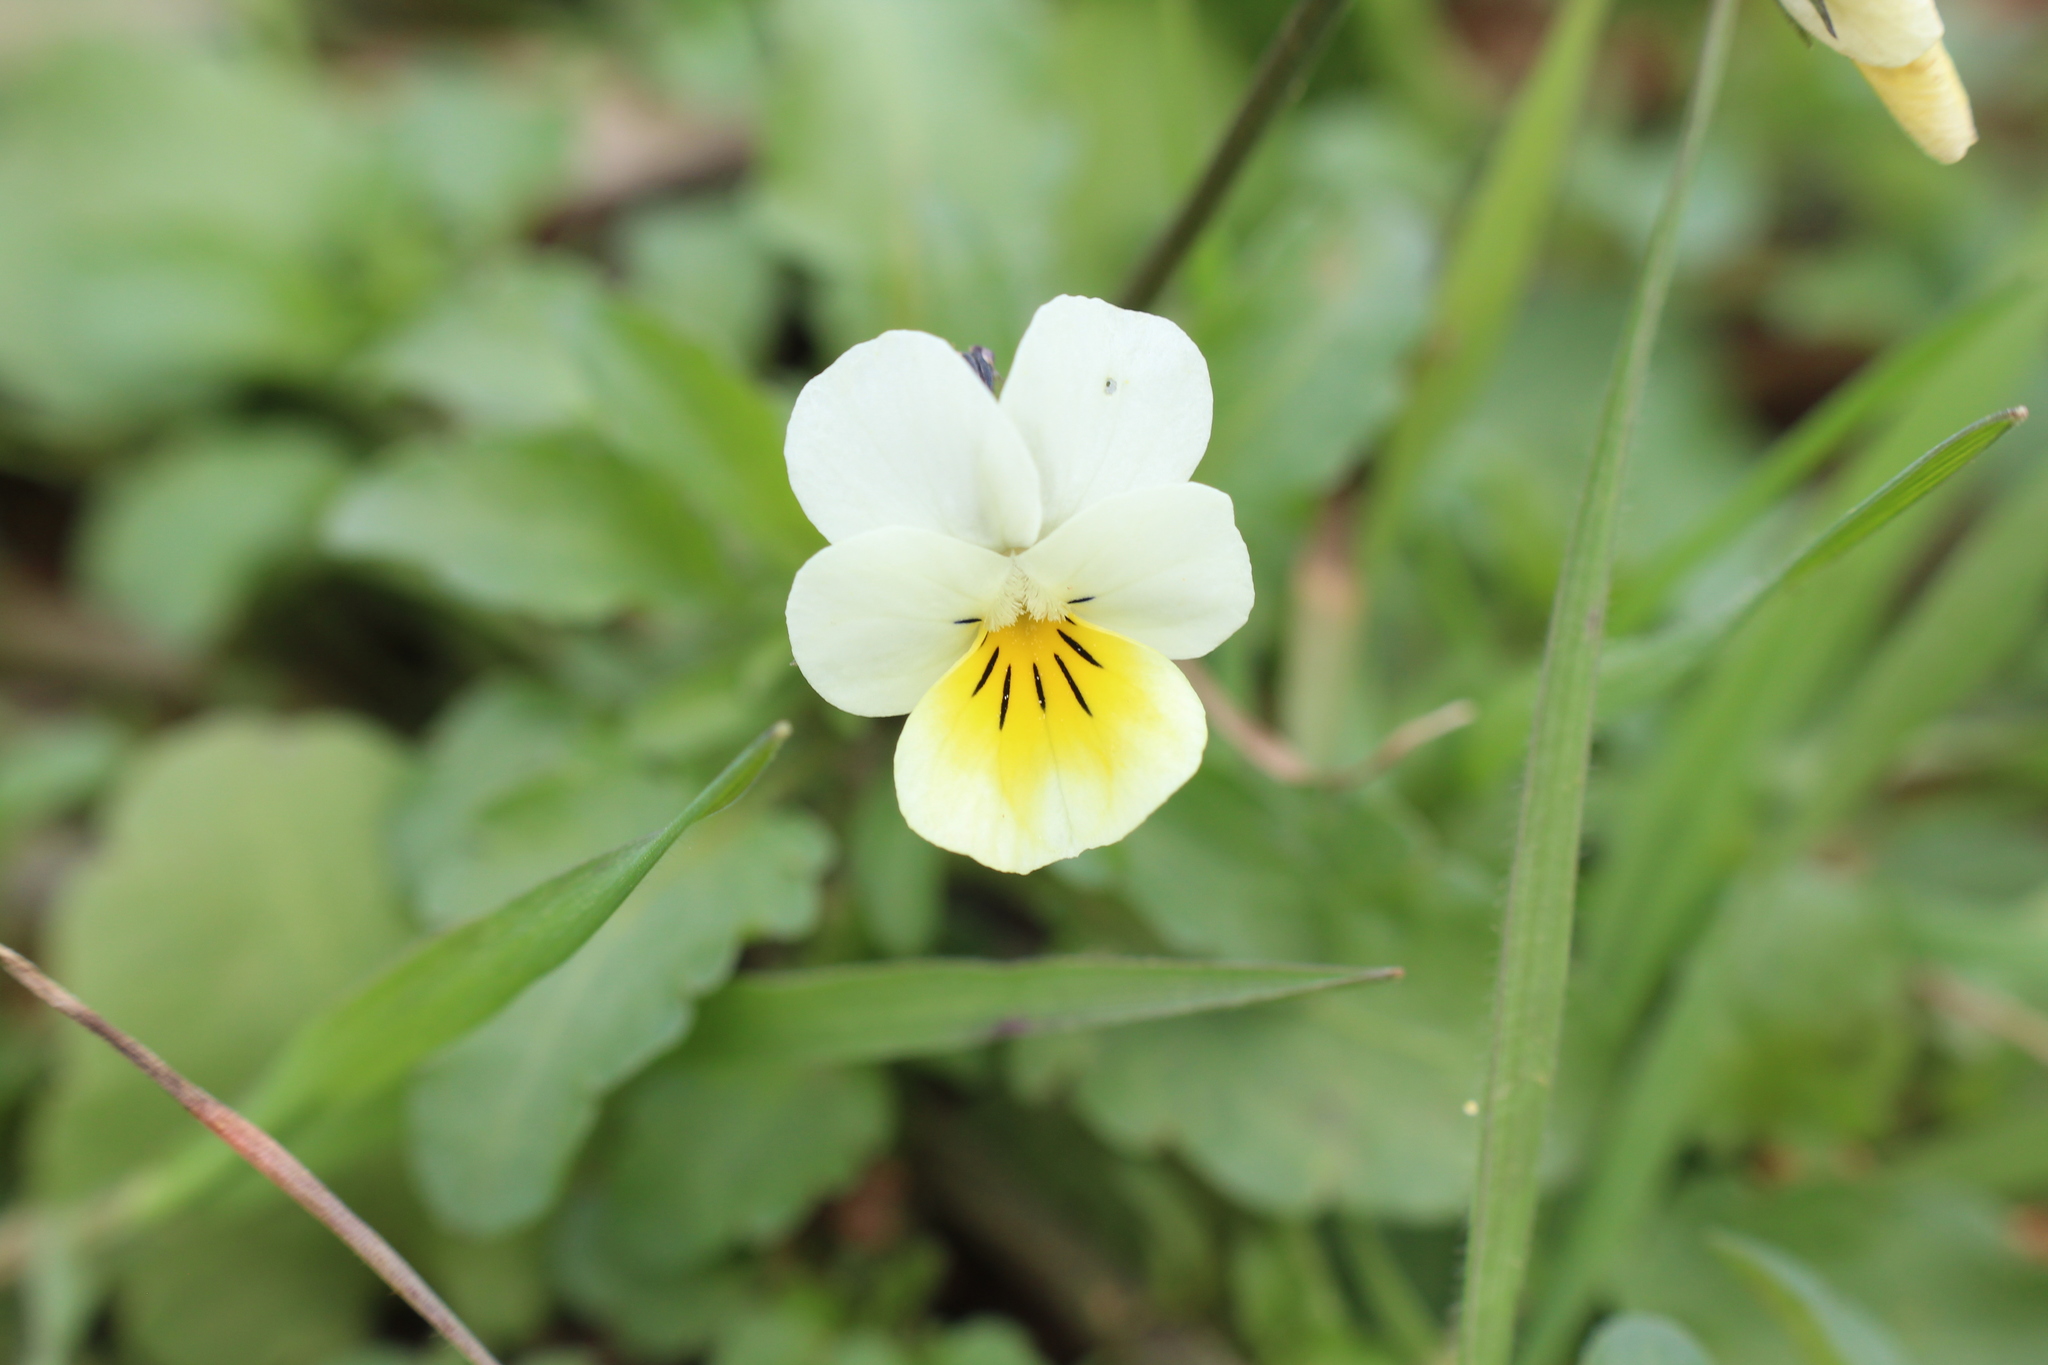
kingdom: Plantae
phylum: Tracheophyta
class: Magnoliopsida
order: Malpighiales
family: Violaceae
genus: Viola
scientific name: Viola arvensis
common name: Field pansy
